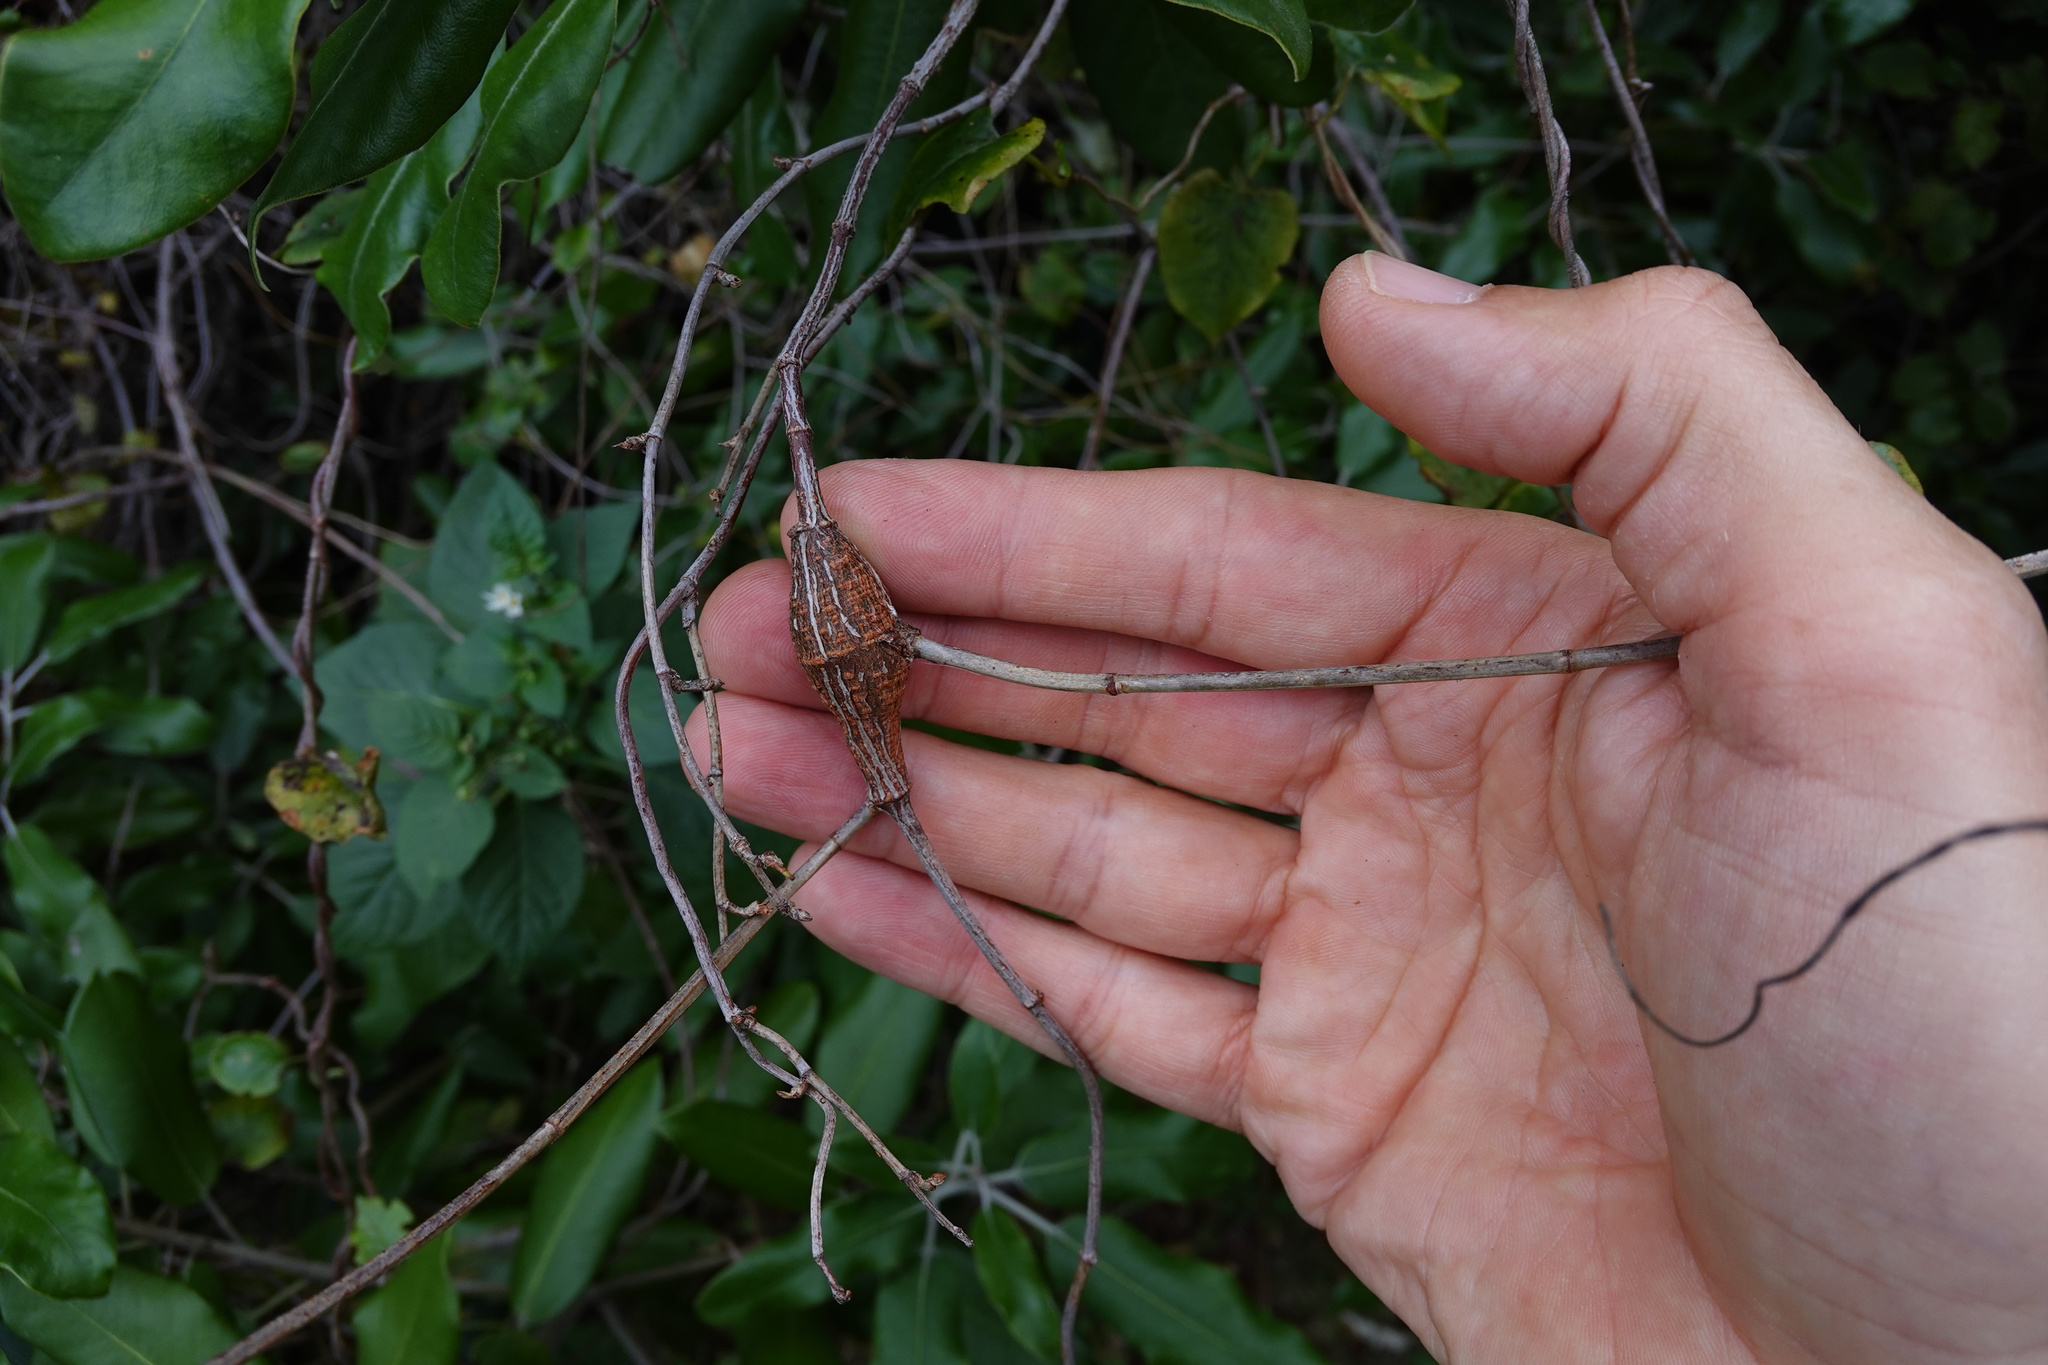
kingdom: Animalia
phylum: Arthropoda
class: Insecta
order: Lepidoptera
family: Thyrididae
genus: Morova
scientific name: Morova subfasciata
